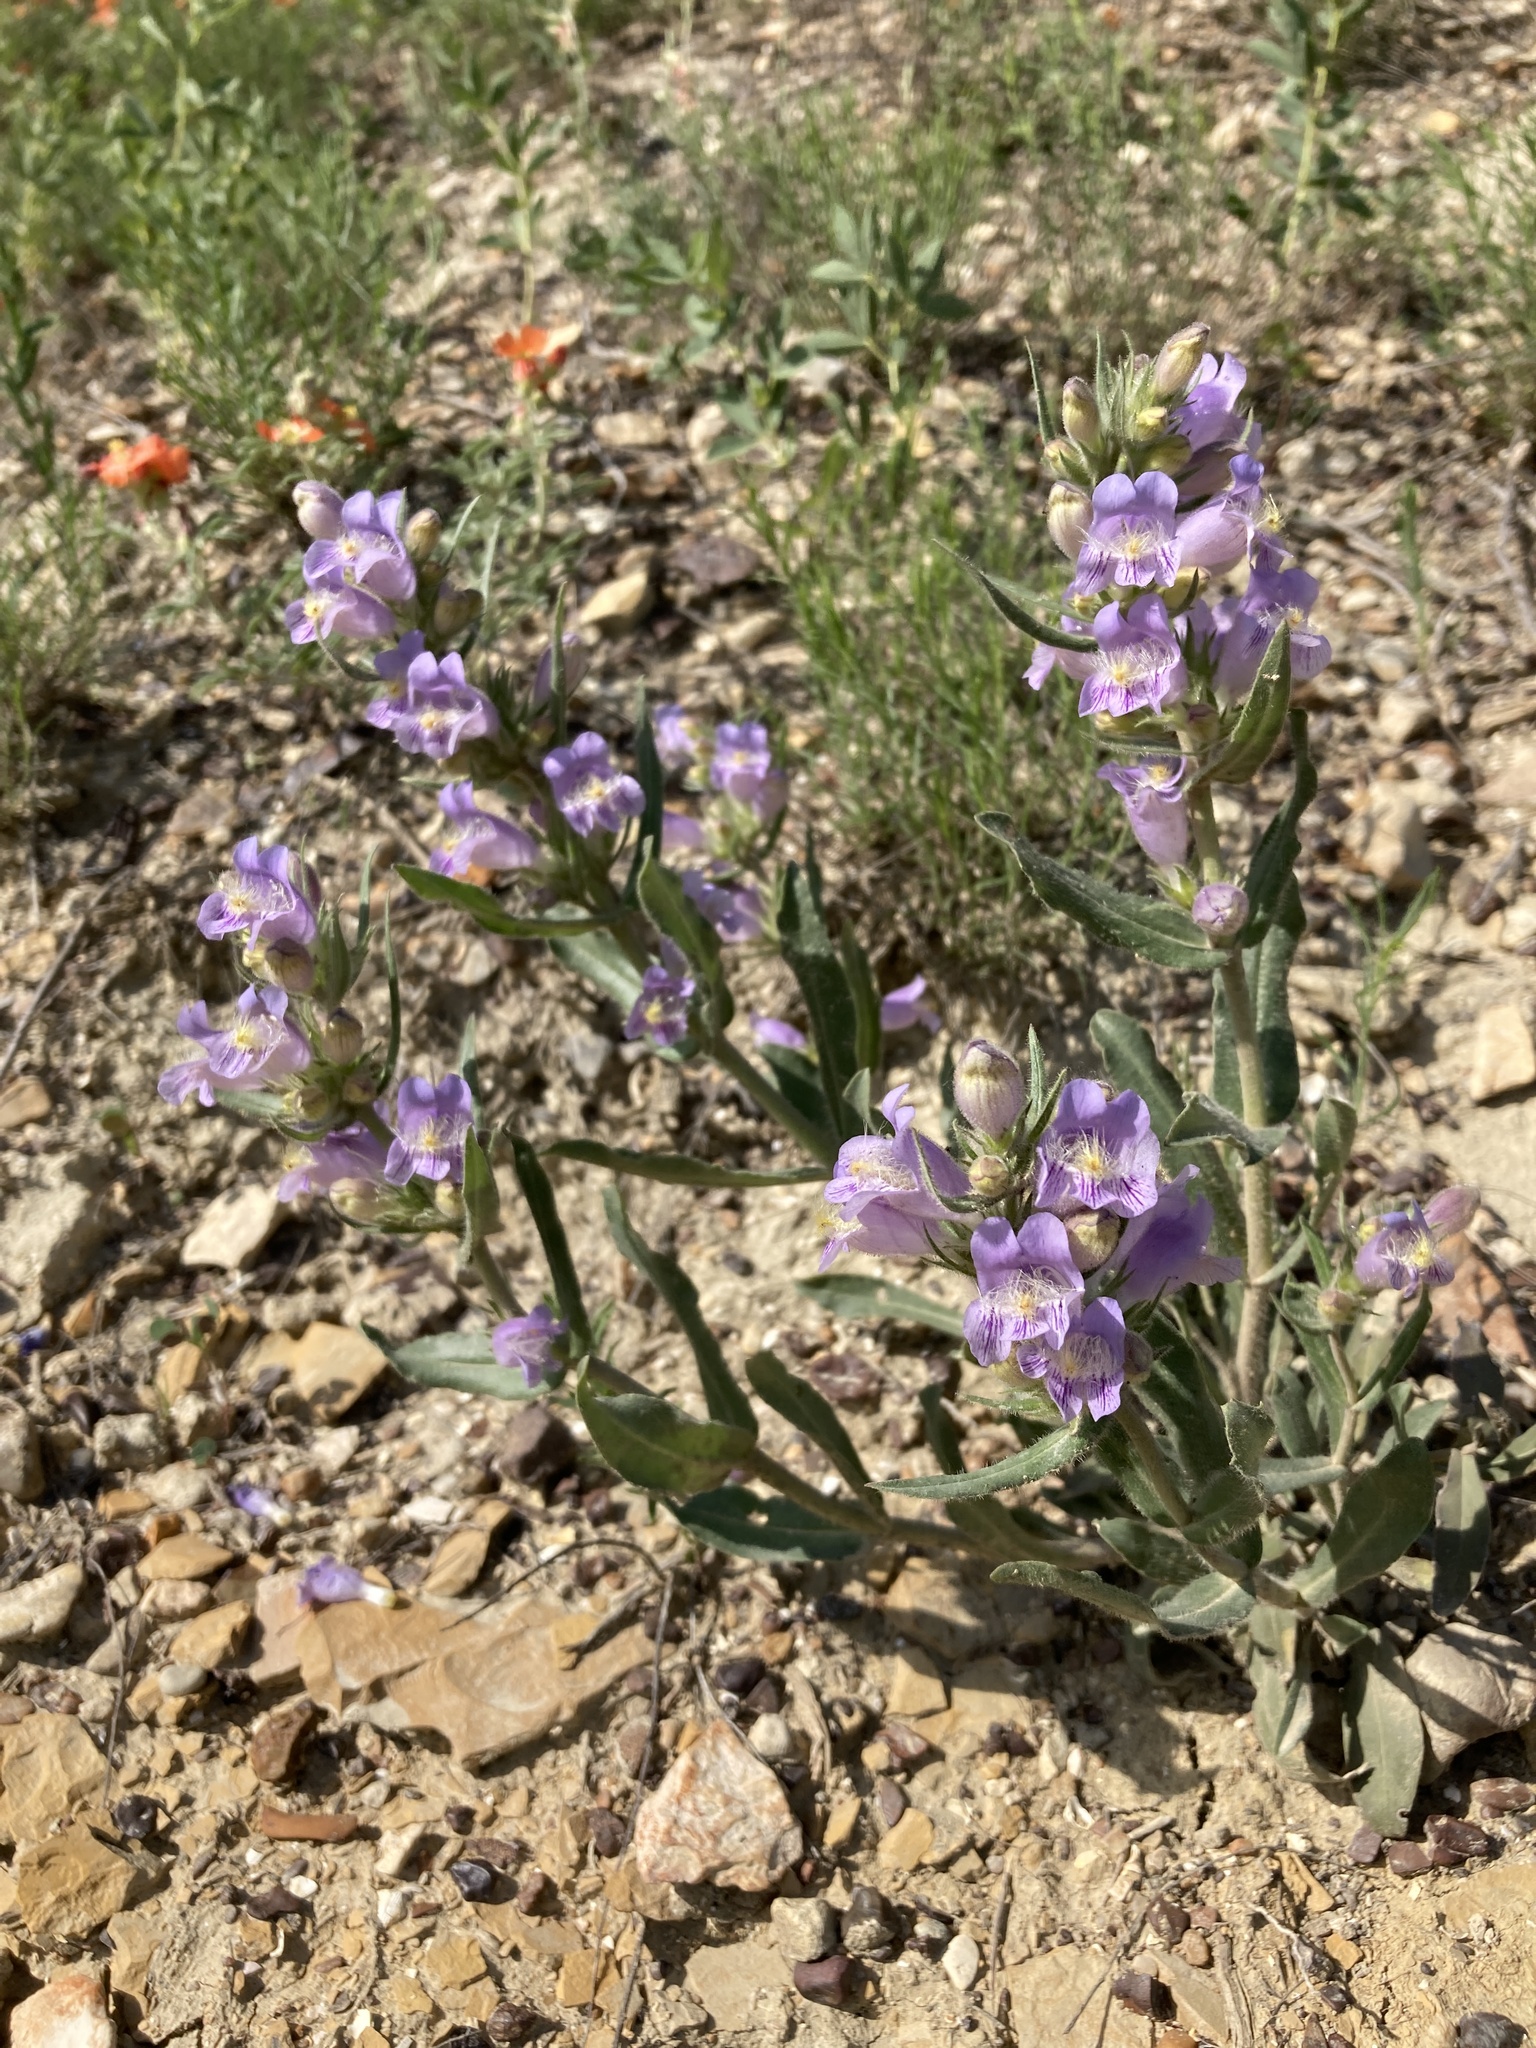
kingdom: Plantae
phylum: Tracheophyta
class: Magnoliopsida
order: Lamiales
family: Plantaginaceae
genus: Penstemon
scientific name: Penstemon eriantherus
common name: Crested beardtongue
